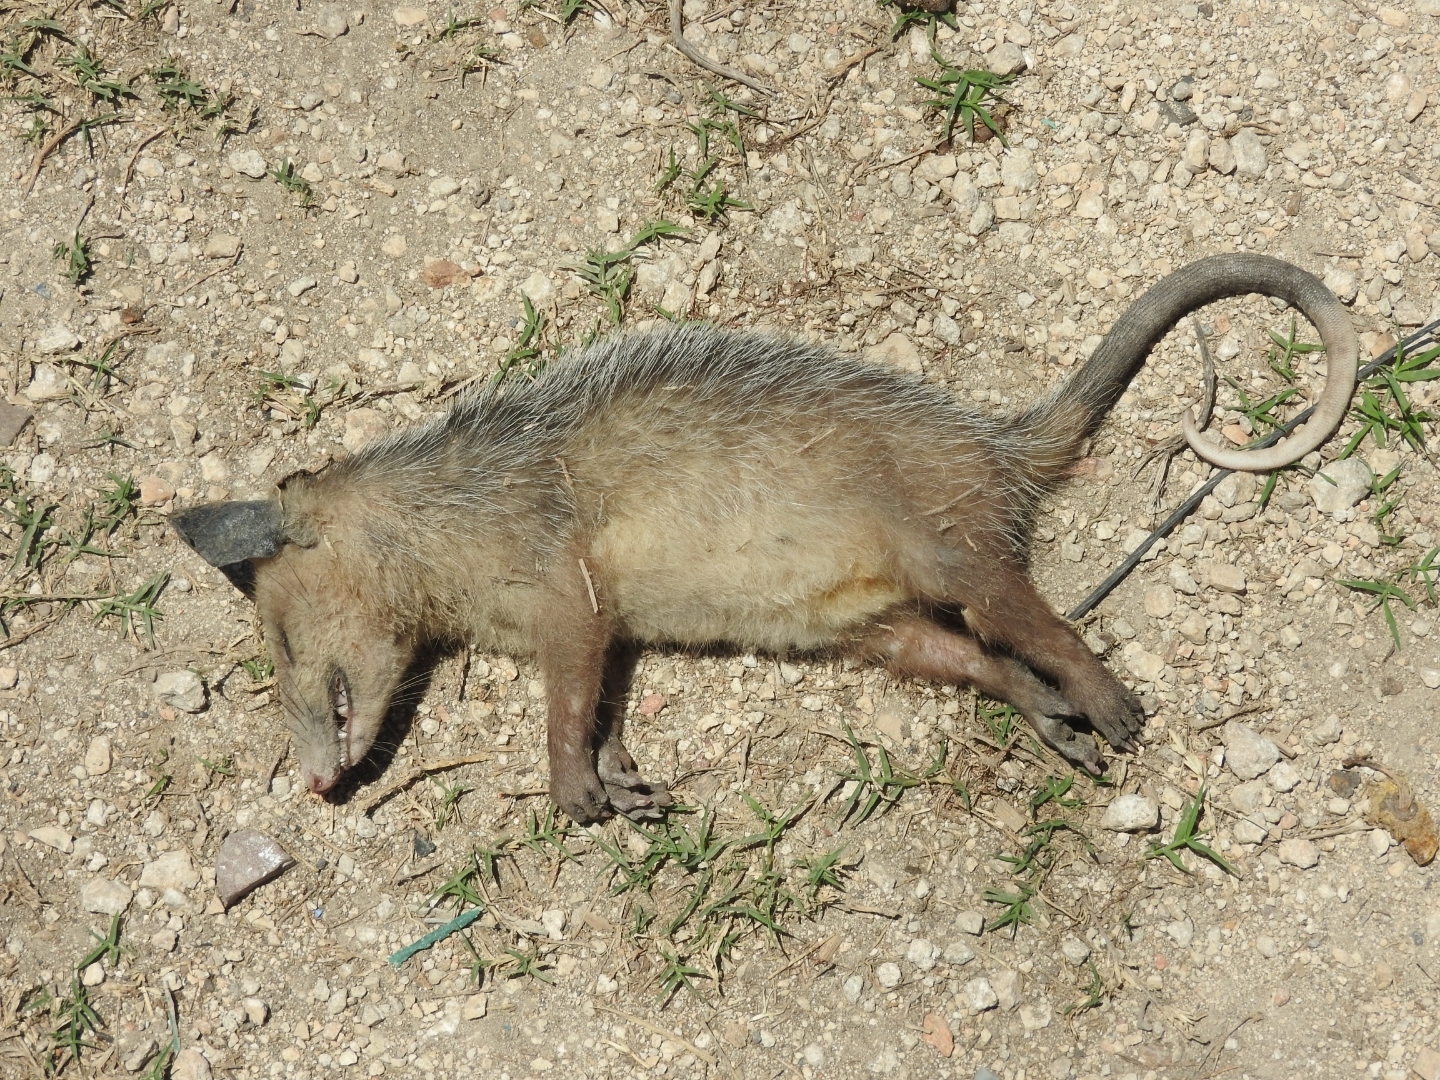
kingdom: Animalia
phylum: Chordata
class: Mammalia
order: Didelphimorphia
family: Didelphidae
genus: Didelphis
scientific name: Didelphis virginiana
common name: Virginia opossum
